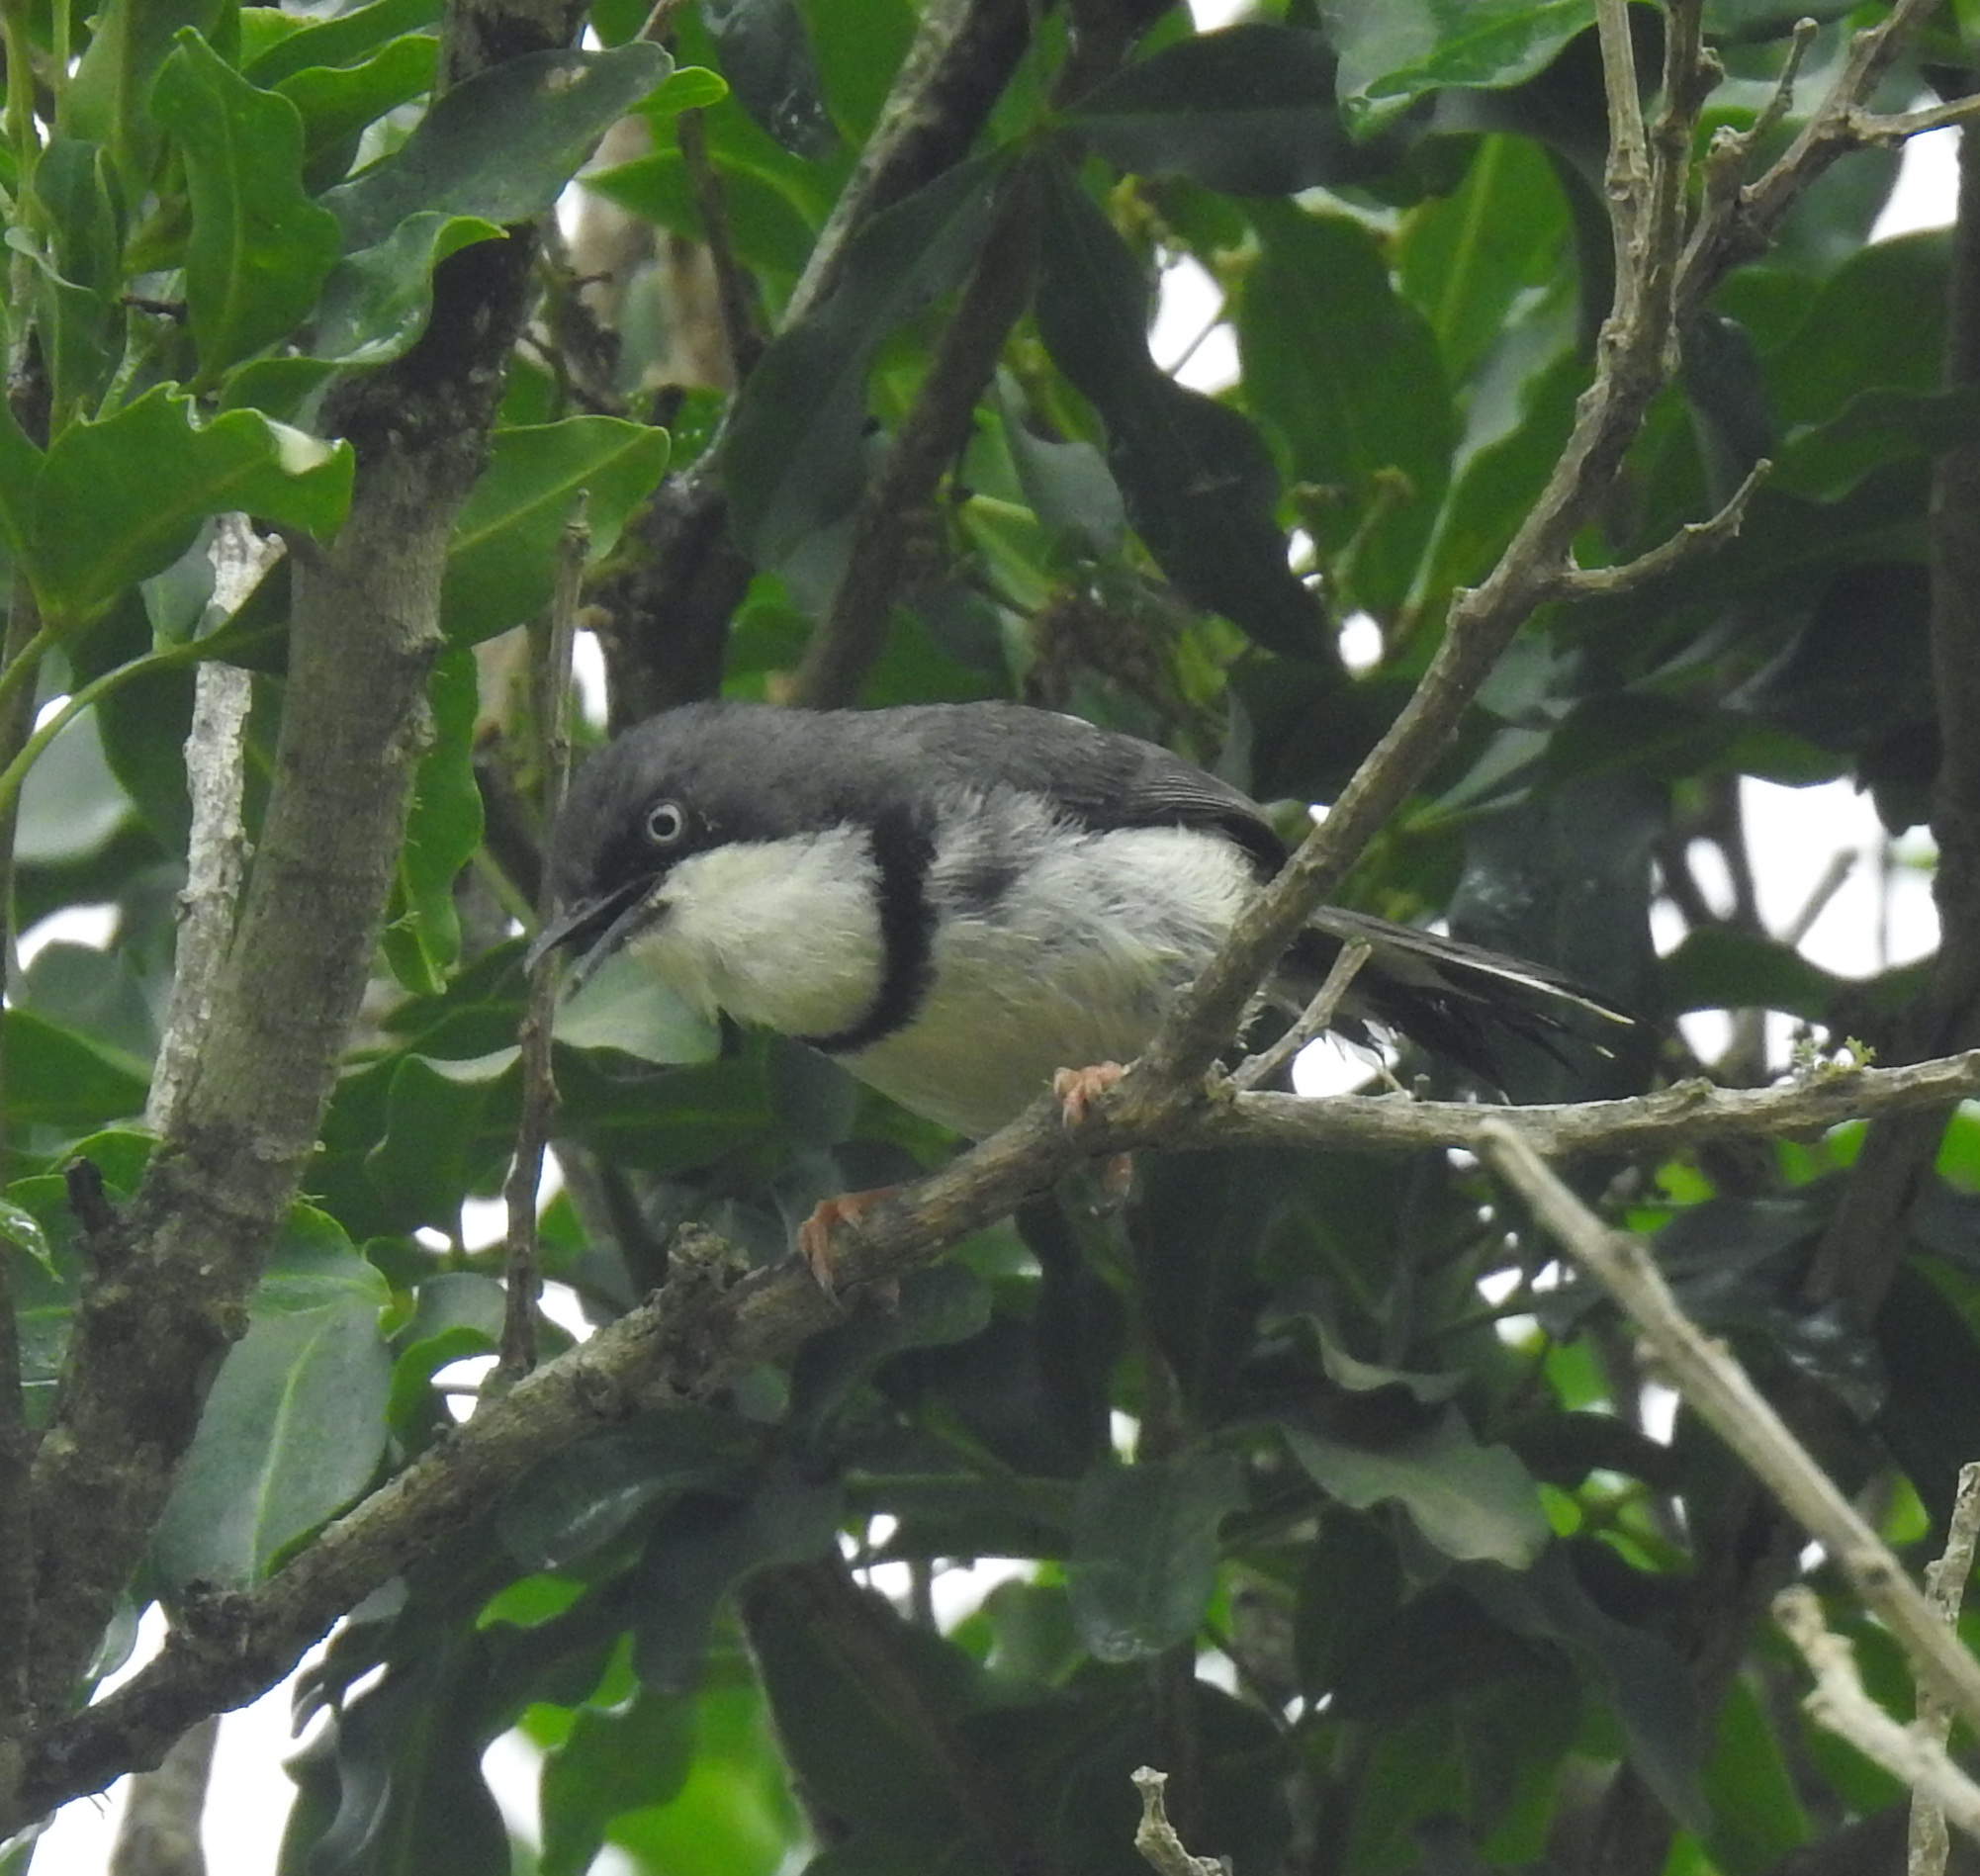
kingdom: Animalia
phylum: Chordata
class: Aves
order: Passeriformes
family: Cisticolidae
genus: Apalis
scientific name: Apalis thoracica
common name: Bar-throated apalis
